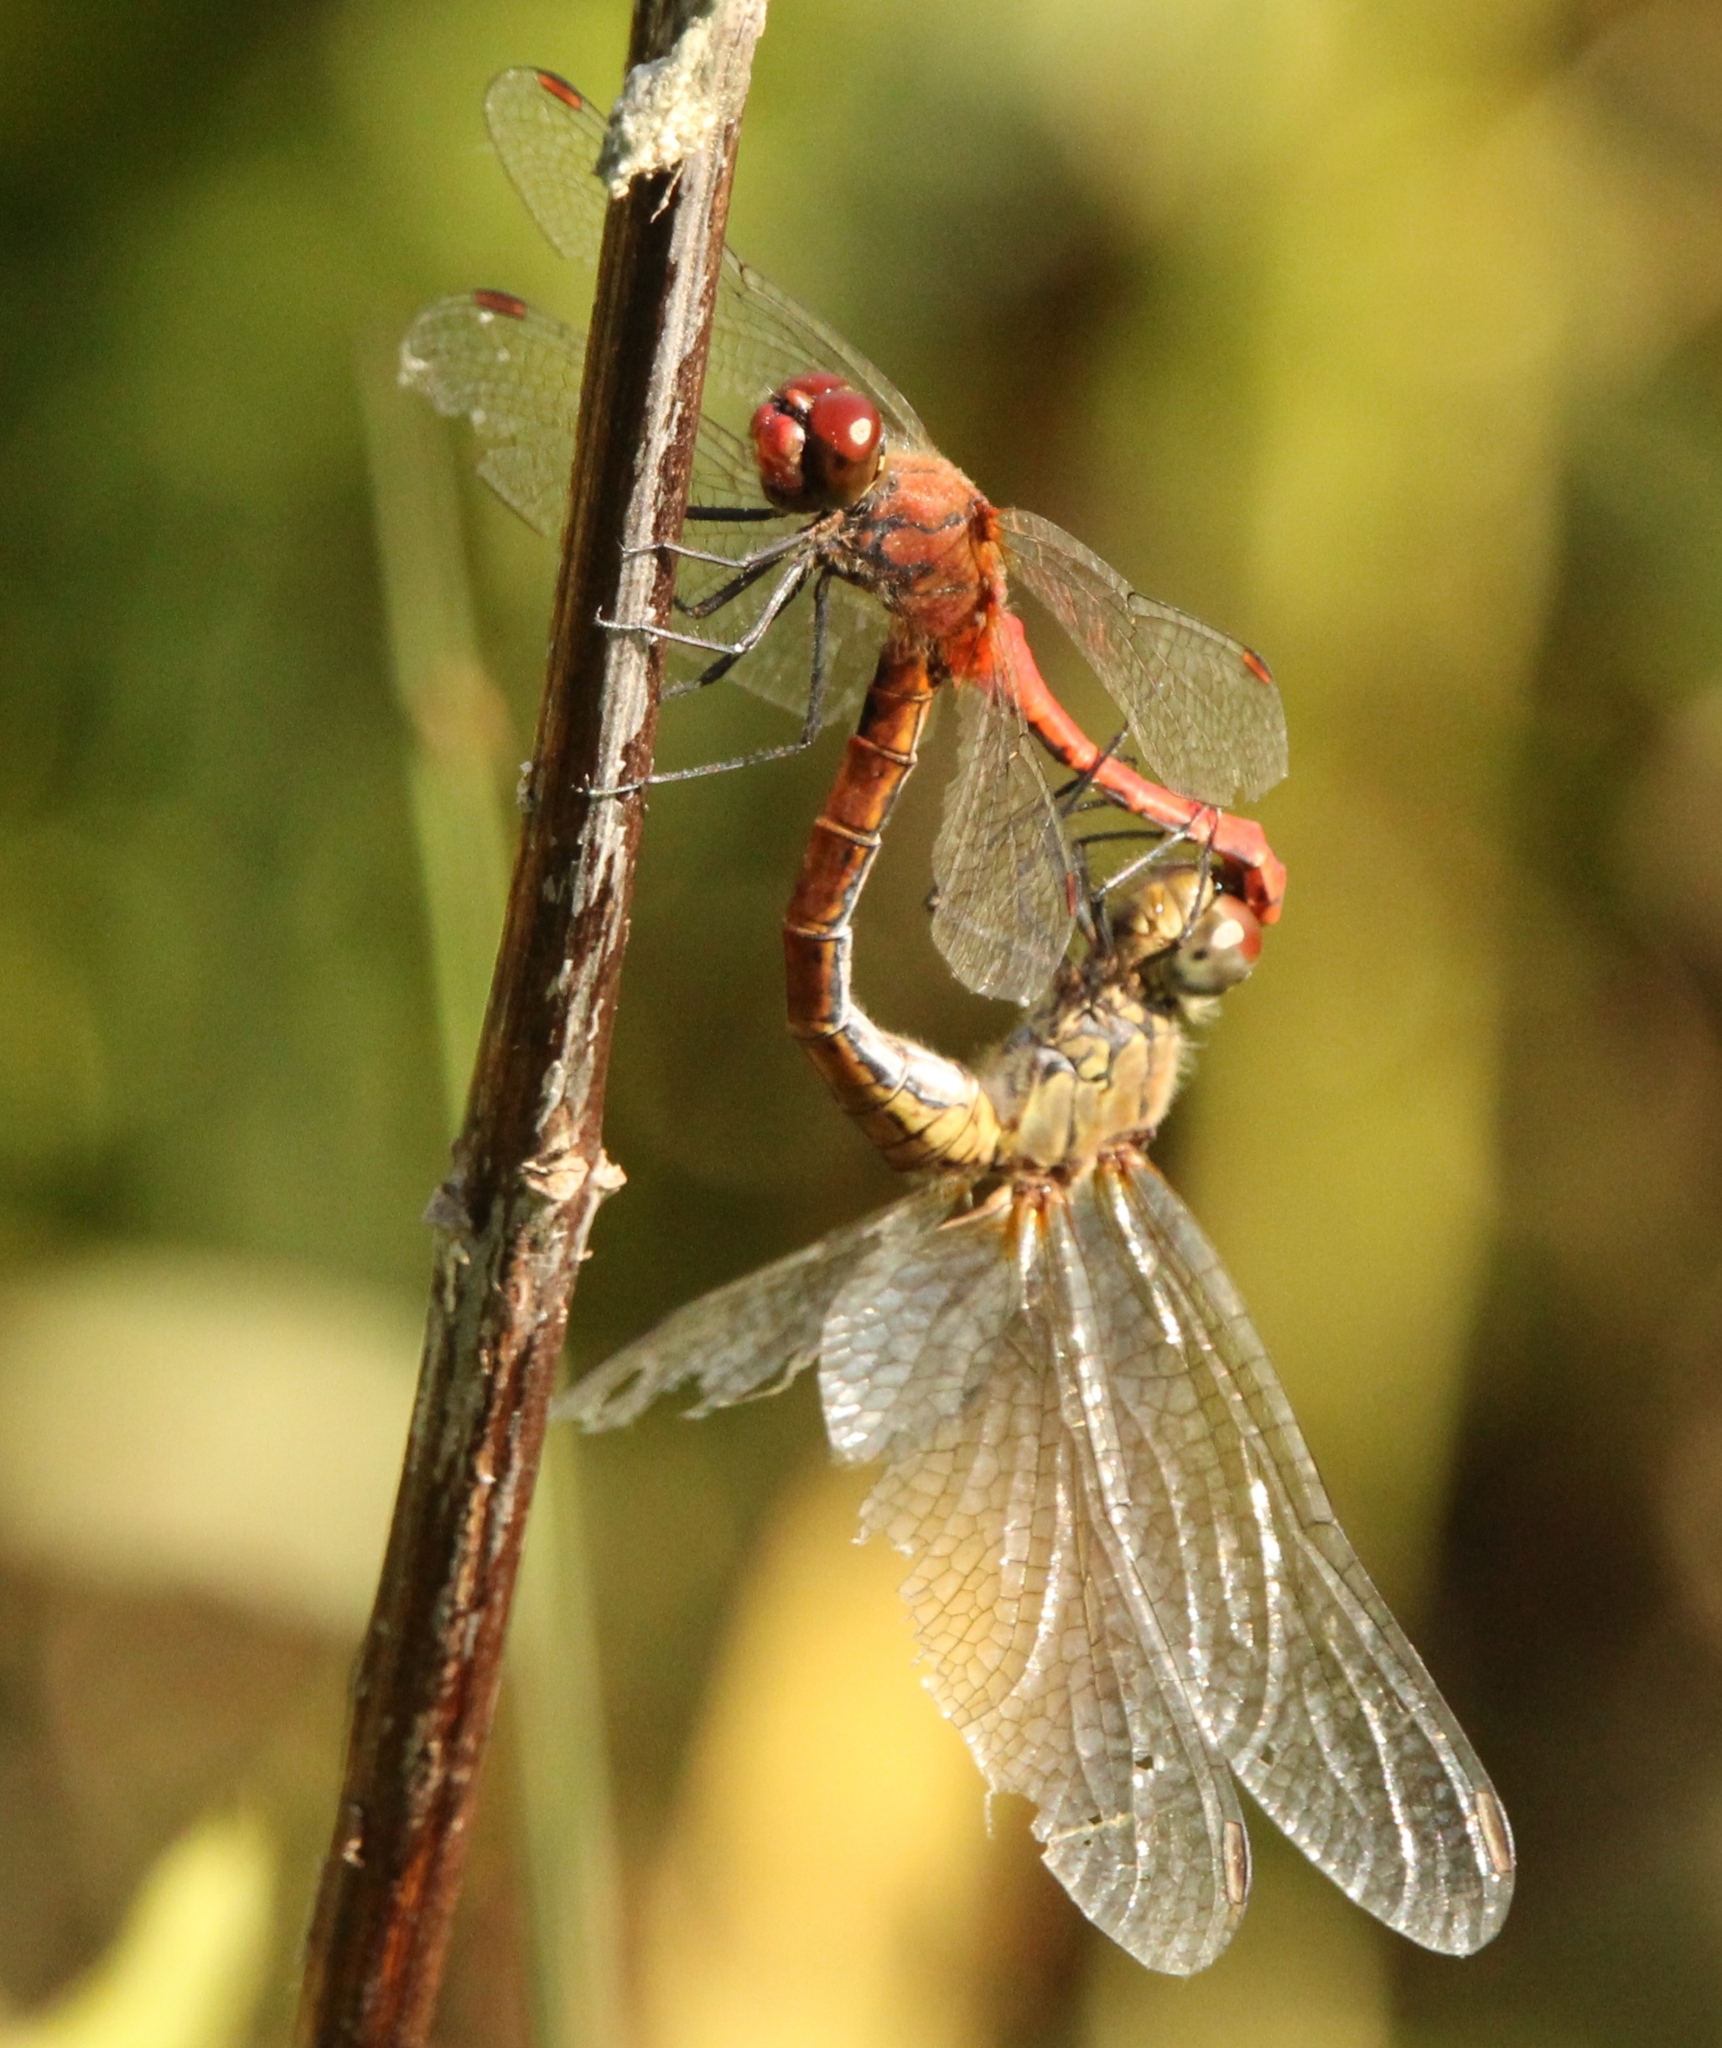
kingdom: Animalia
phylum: Arthropoda
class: Insecta
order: Odonata
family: Libellulidae
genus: Sympetrum
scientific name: Sympetrum sanguineum
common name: Ruddy darter
